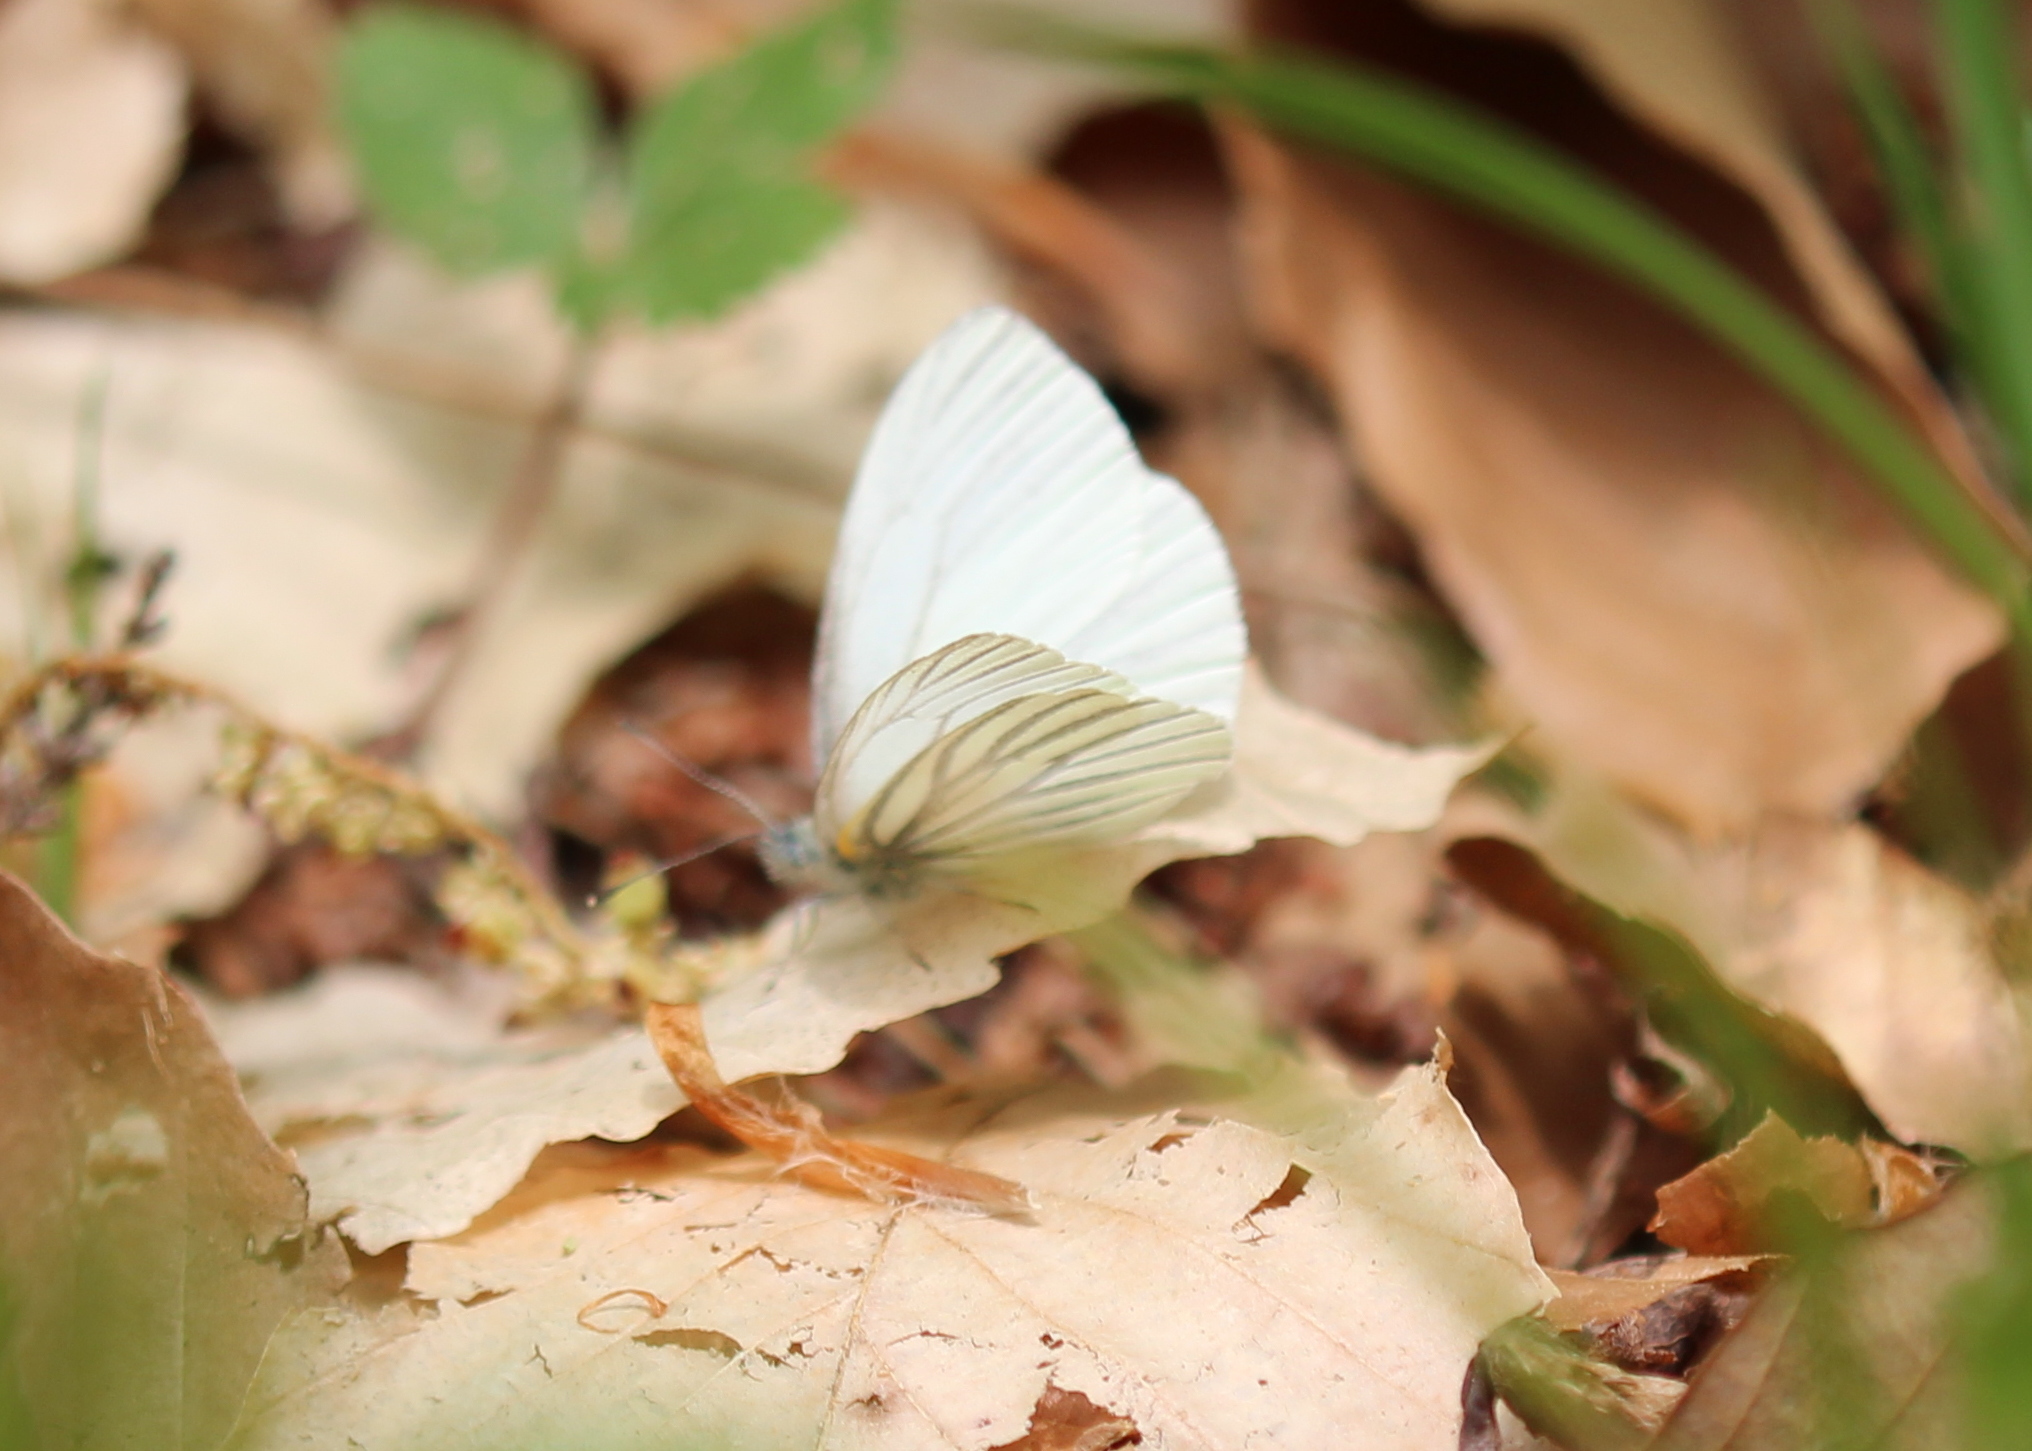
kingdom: Animalia
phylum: Arthropoda
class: Insecta
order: Lepidoptera
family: Pieridae
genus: Pieris
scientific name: Pieris oleracea
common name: Mustard white
